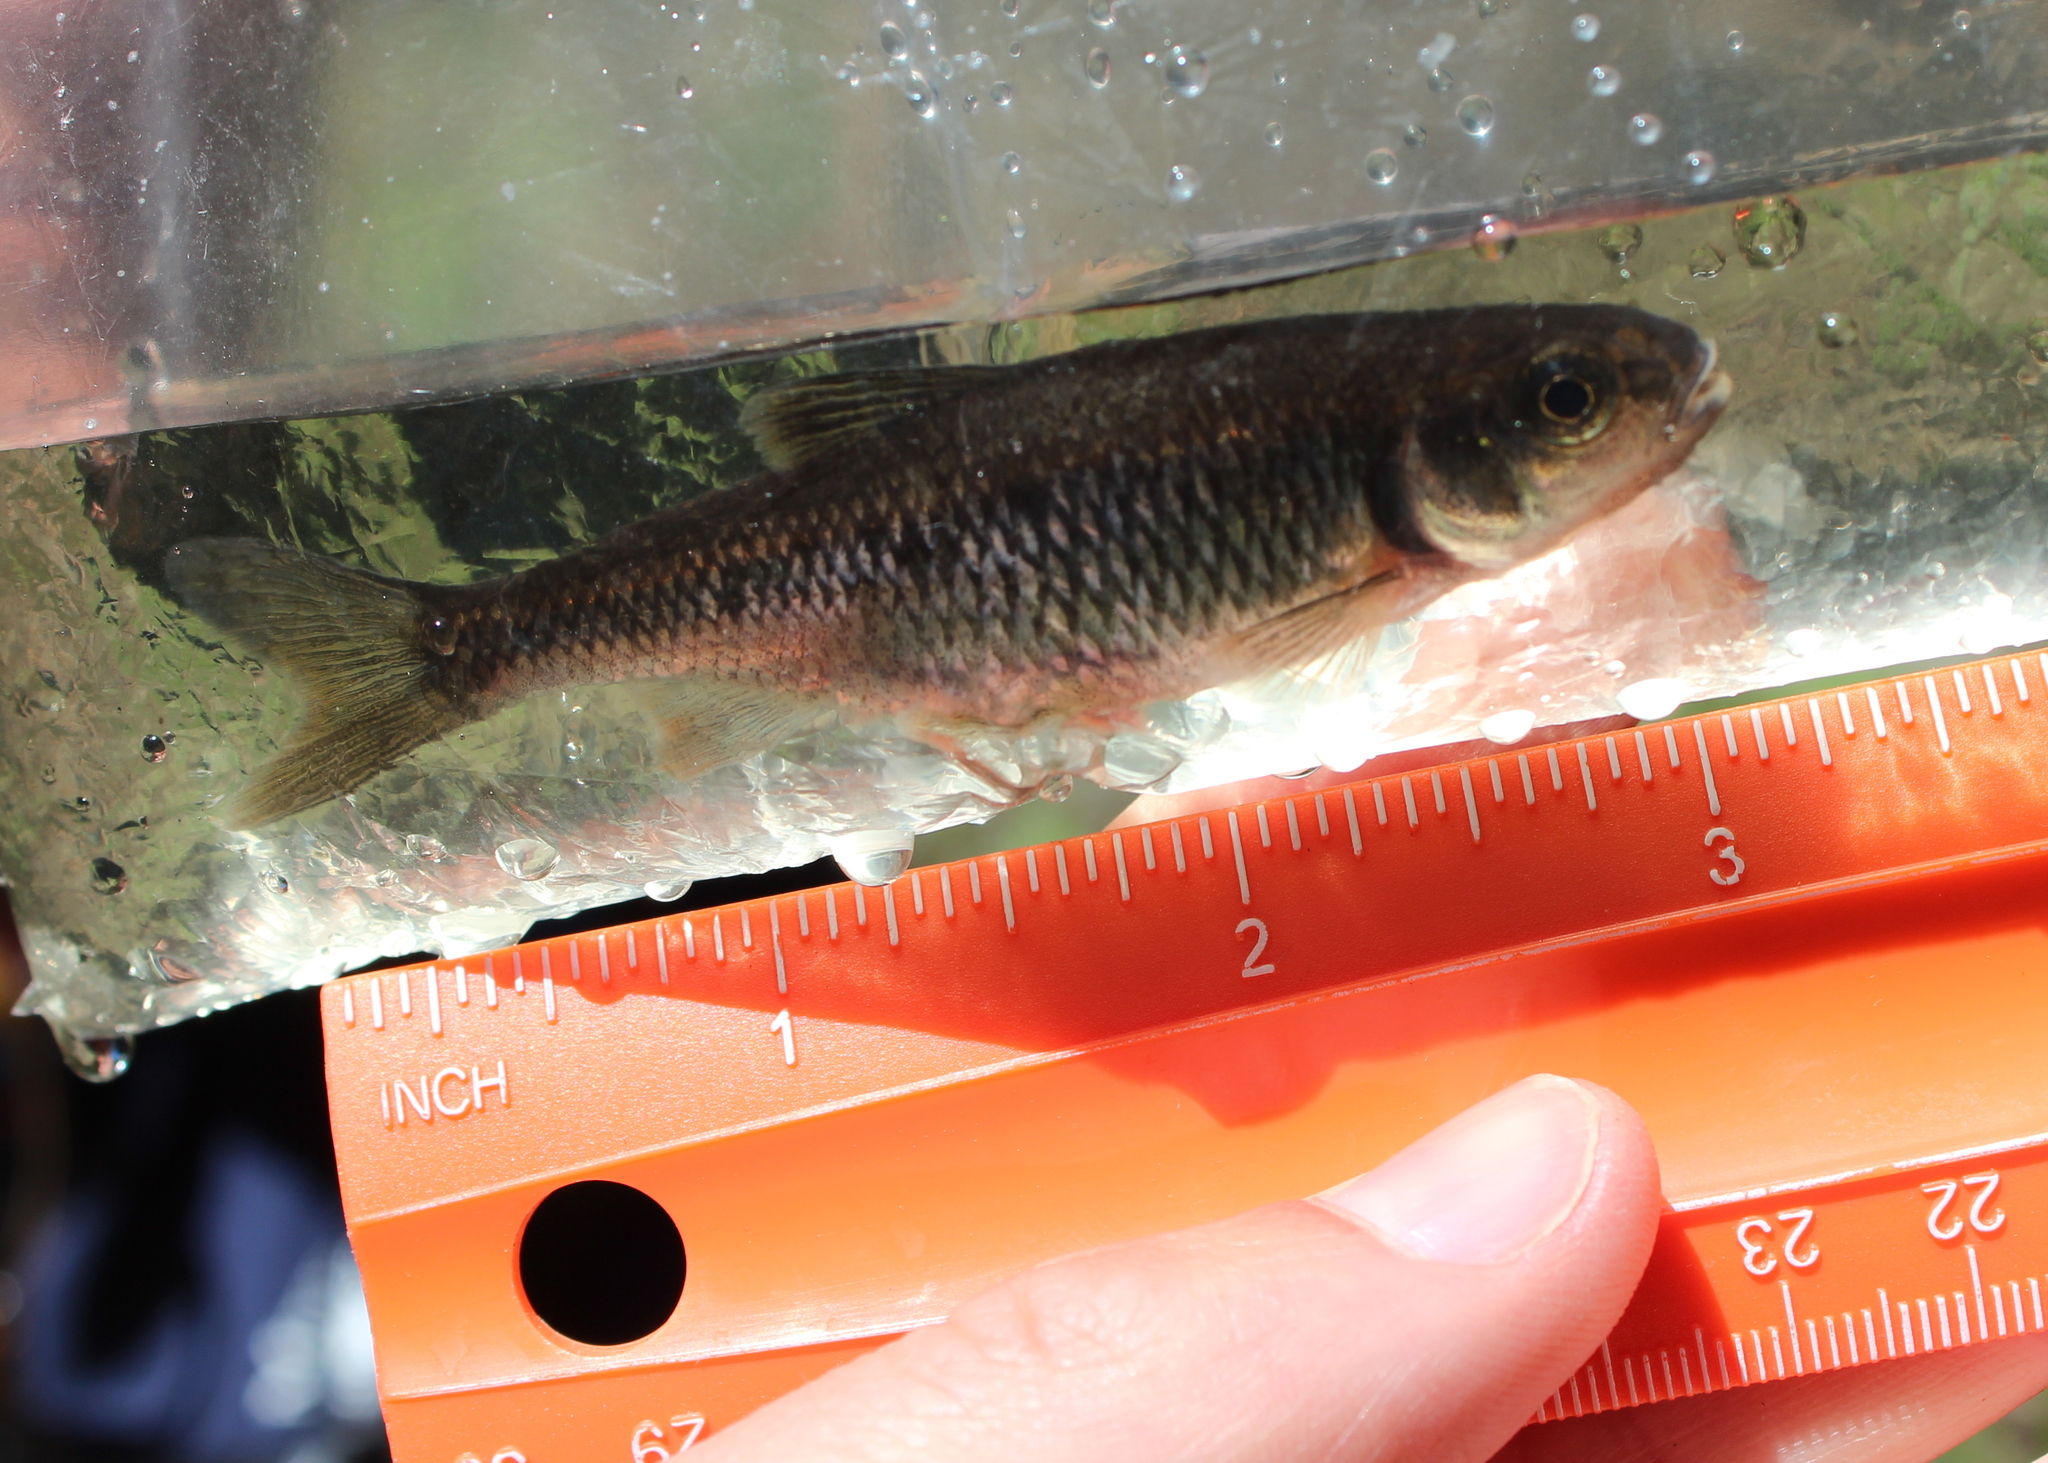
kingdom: Animalia
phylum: Chordata
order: Cypriniformes
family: Cyprinidae
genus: Luxilus
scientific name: Luxilus cornutus
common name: Common shiner
